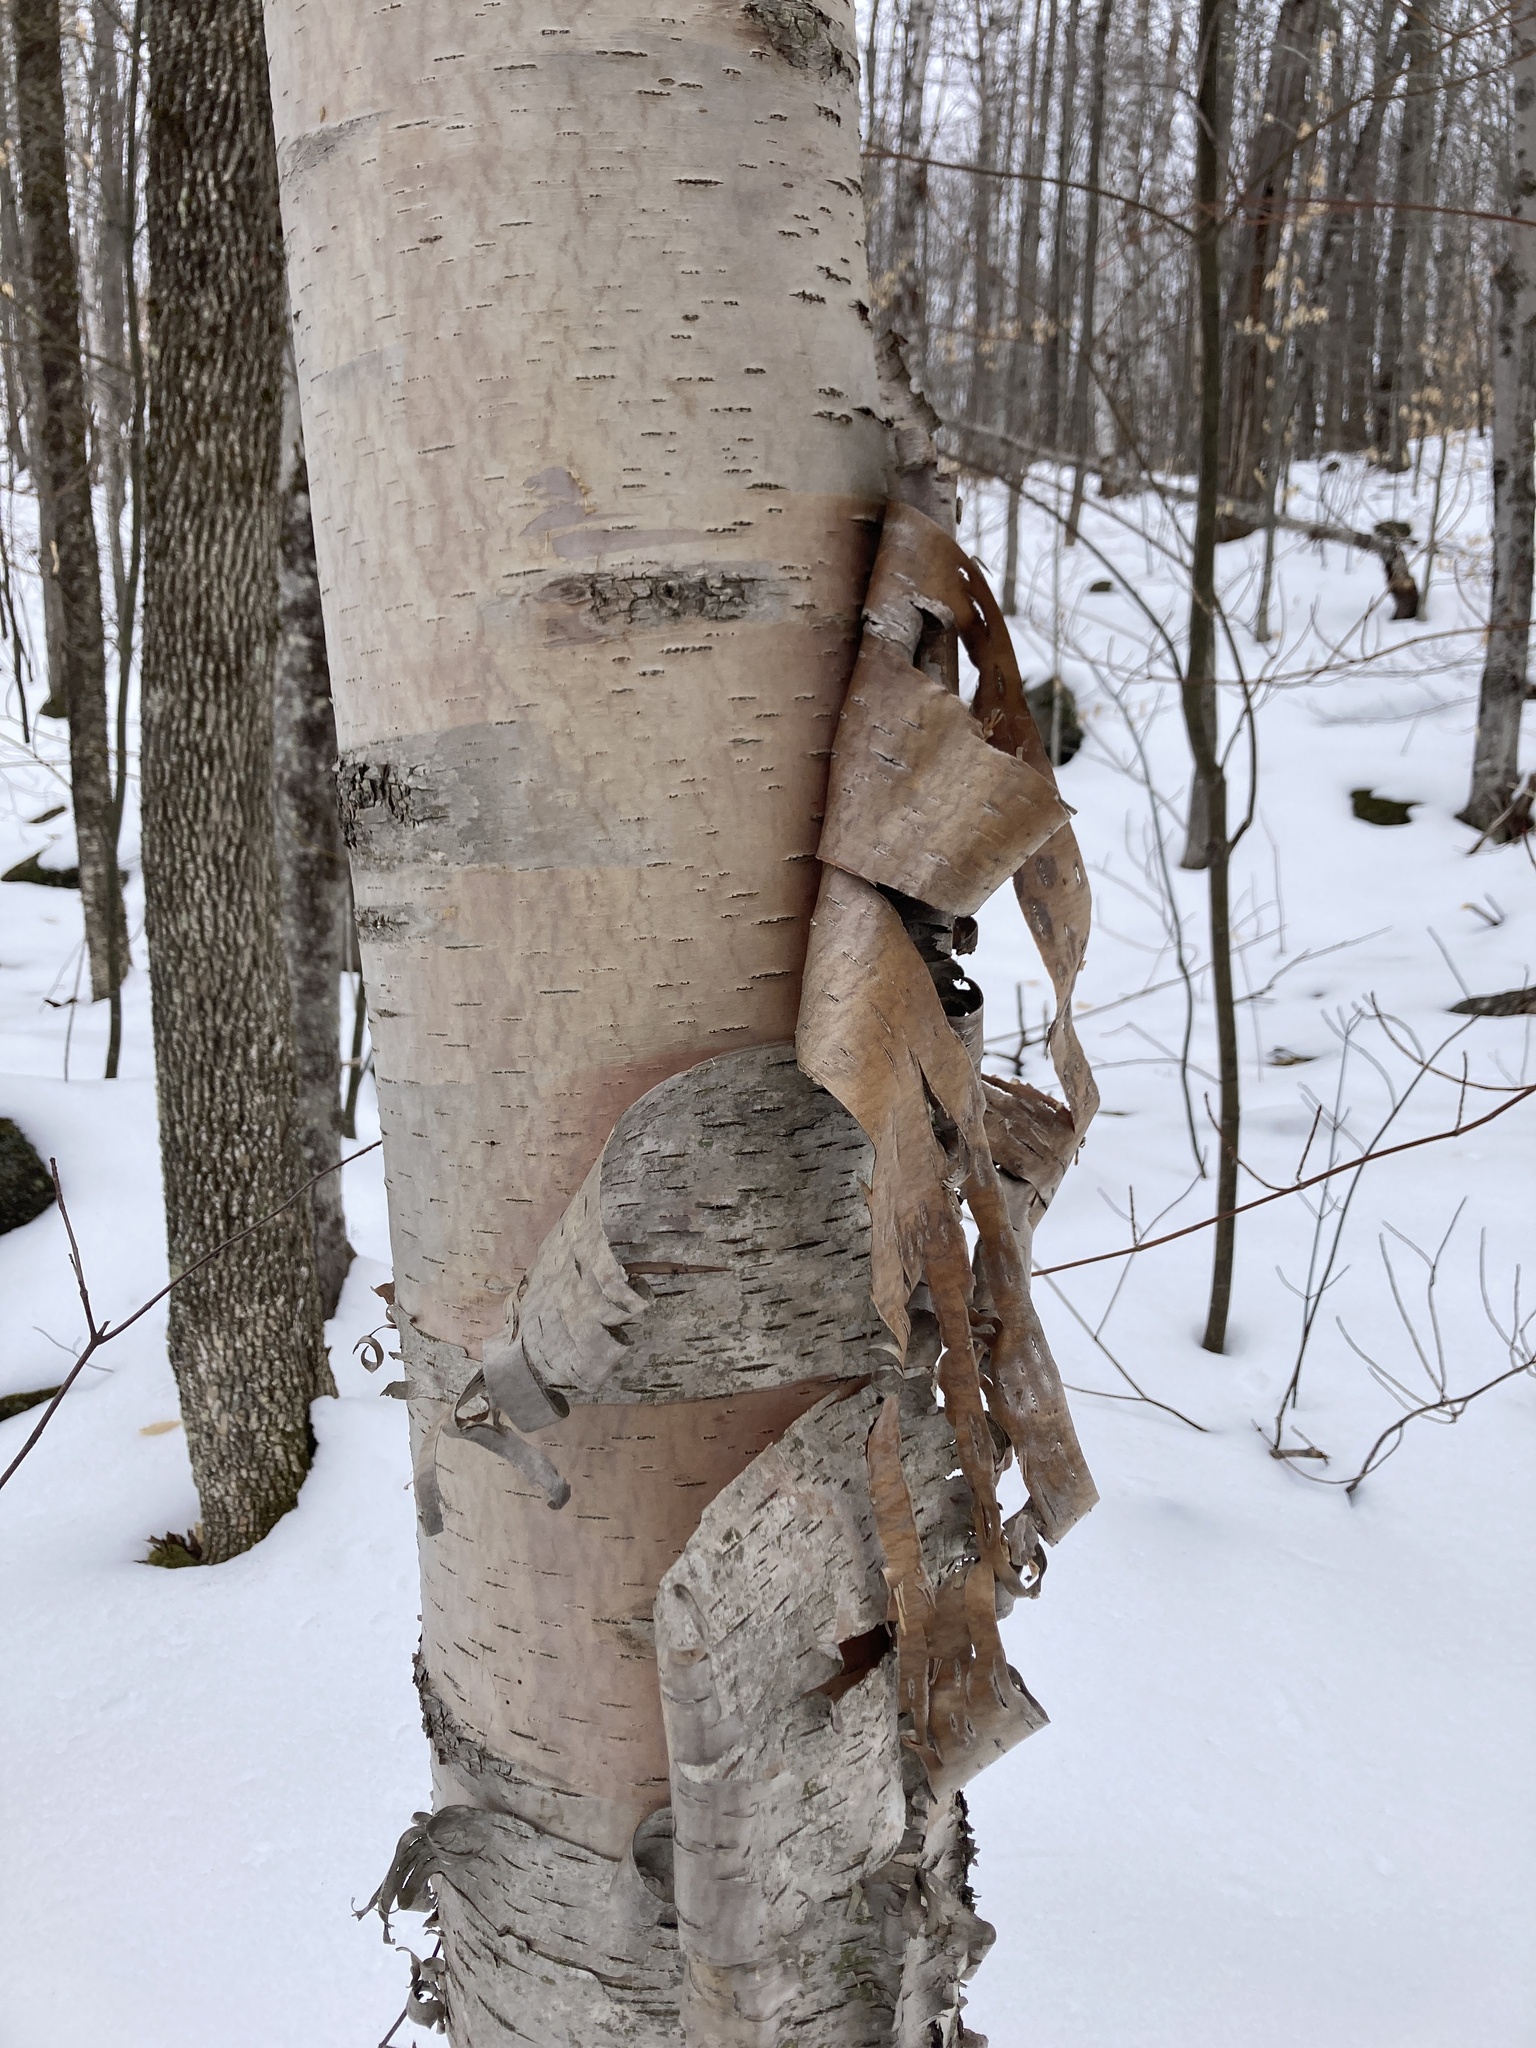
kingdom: Plantae
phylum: Tracheophyta
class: Magnoliopsida
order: Fagales
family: Betulaceae
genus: Betula
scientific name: Betula papyrifera
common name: Paper birch
